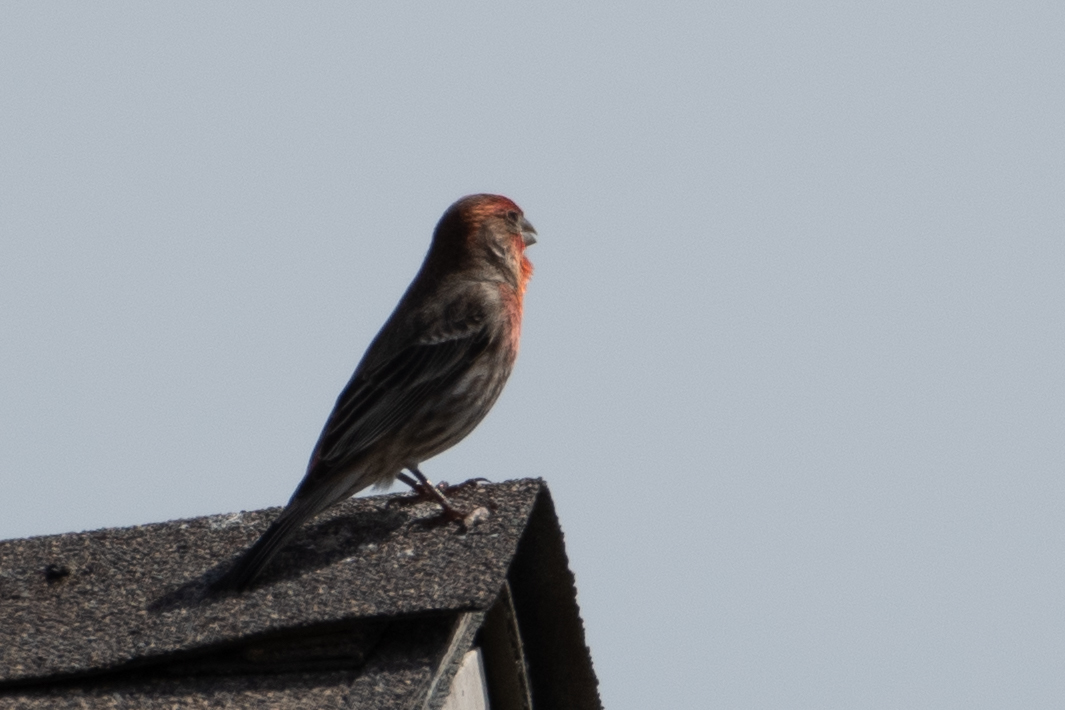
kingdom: Animalia
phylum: Chordata
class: Aves
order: Passeriformes
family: Fringillidae
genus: Haemorhous
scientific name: Haemorhous mexicanus
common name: House finch
